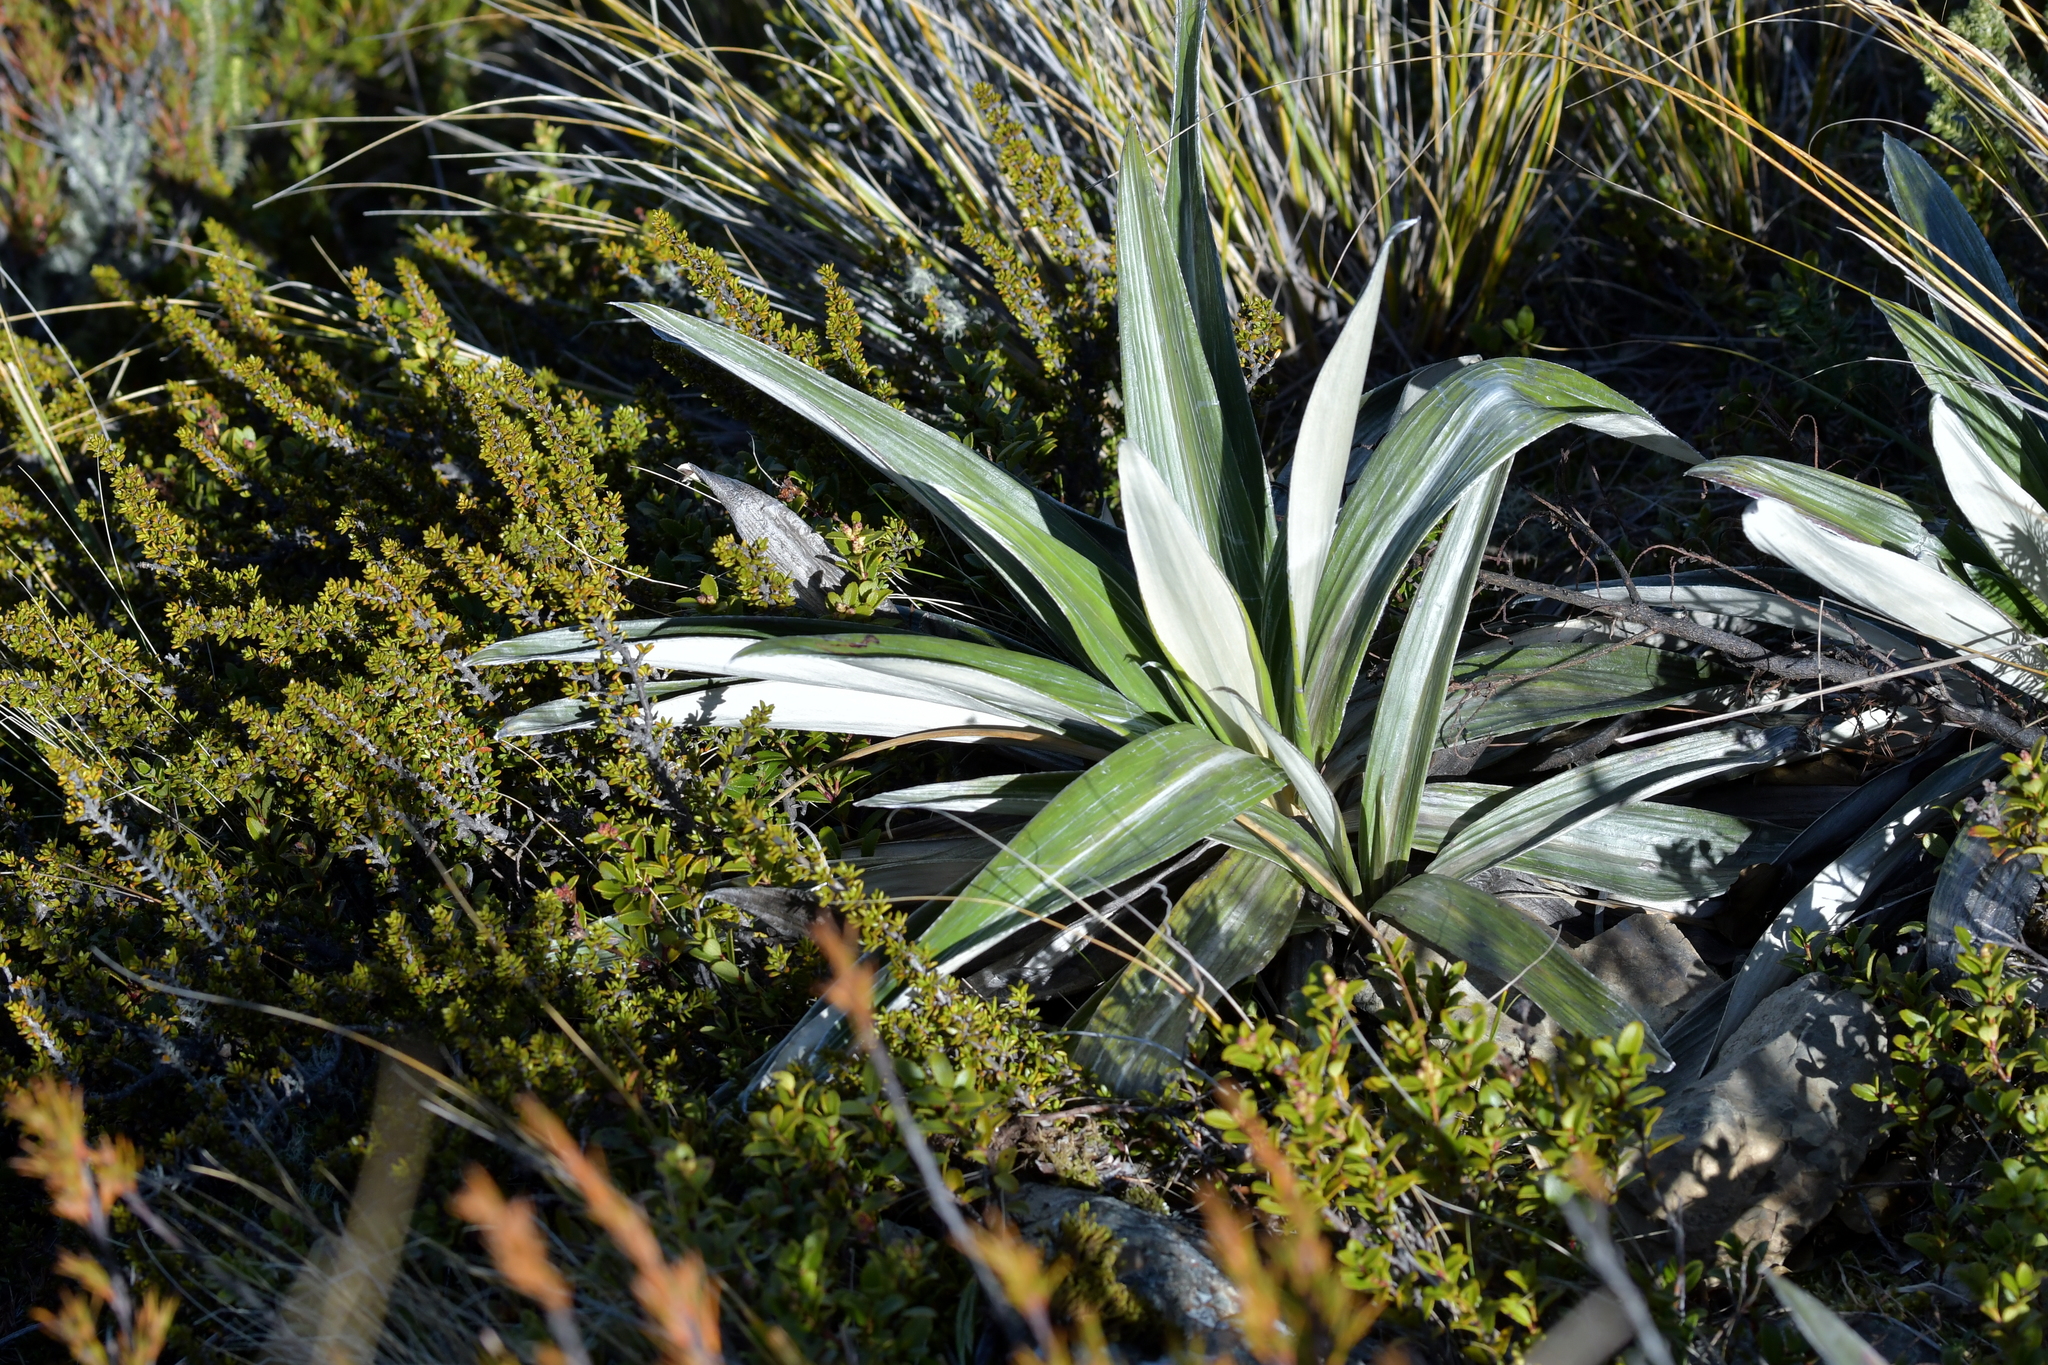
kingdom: Plantae
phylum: Tracheophyta
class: Magnoliopsida
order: Asterales
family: Asteraceae
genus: Celmisia
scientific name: Celmisia semicordata
